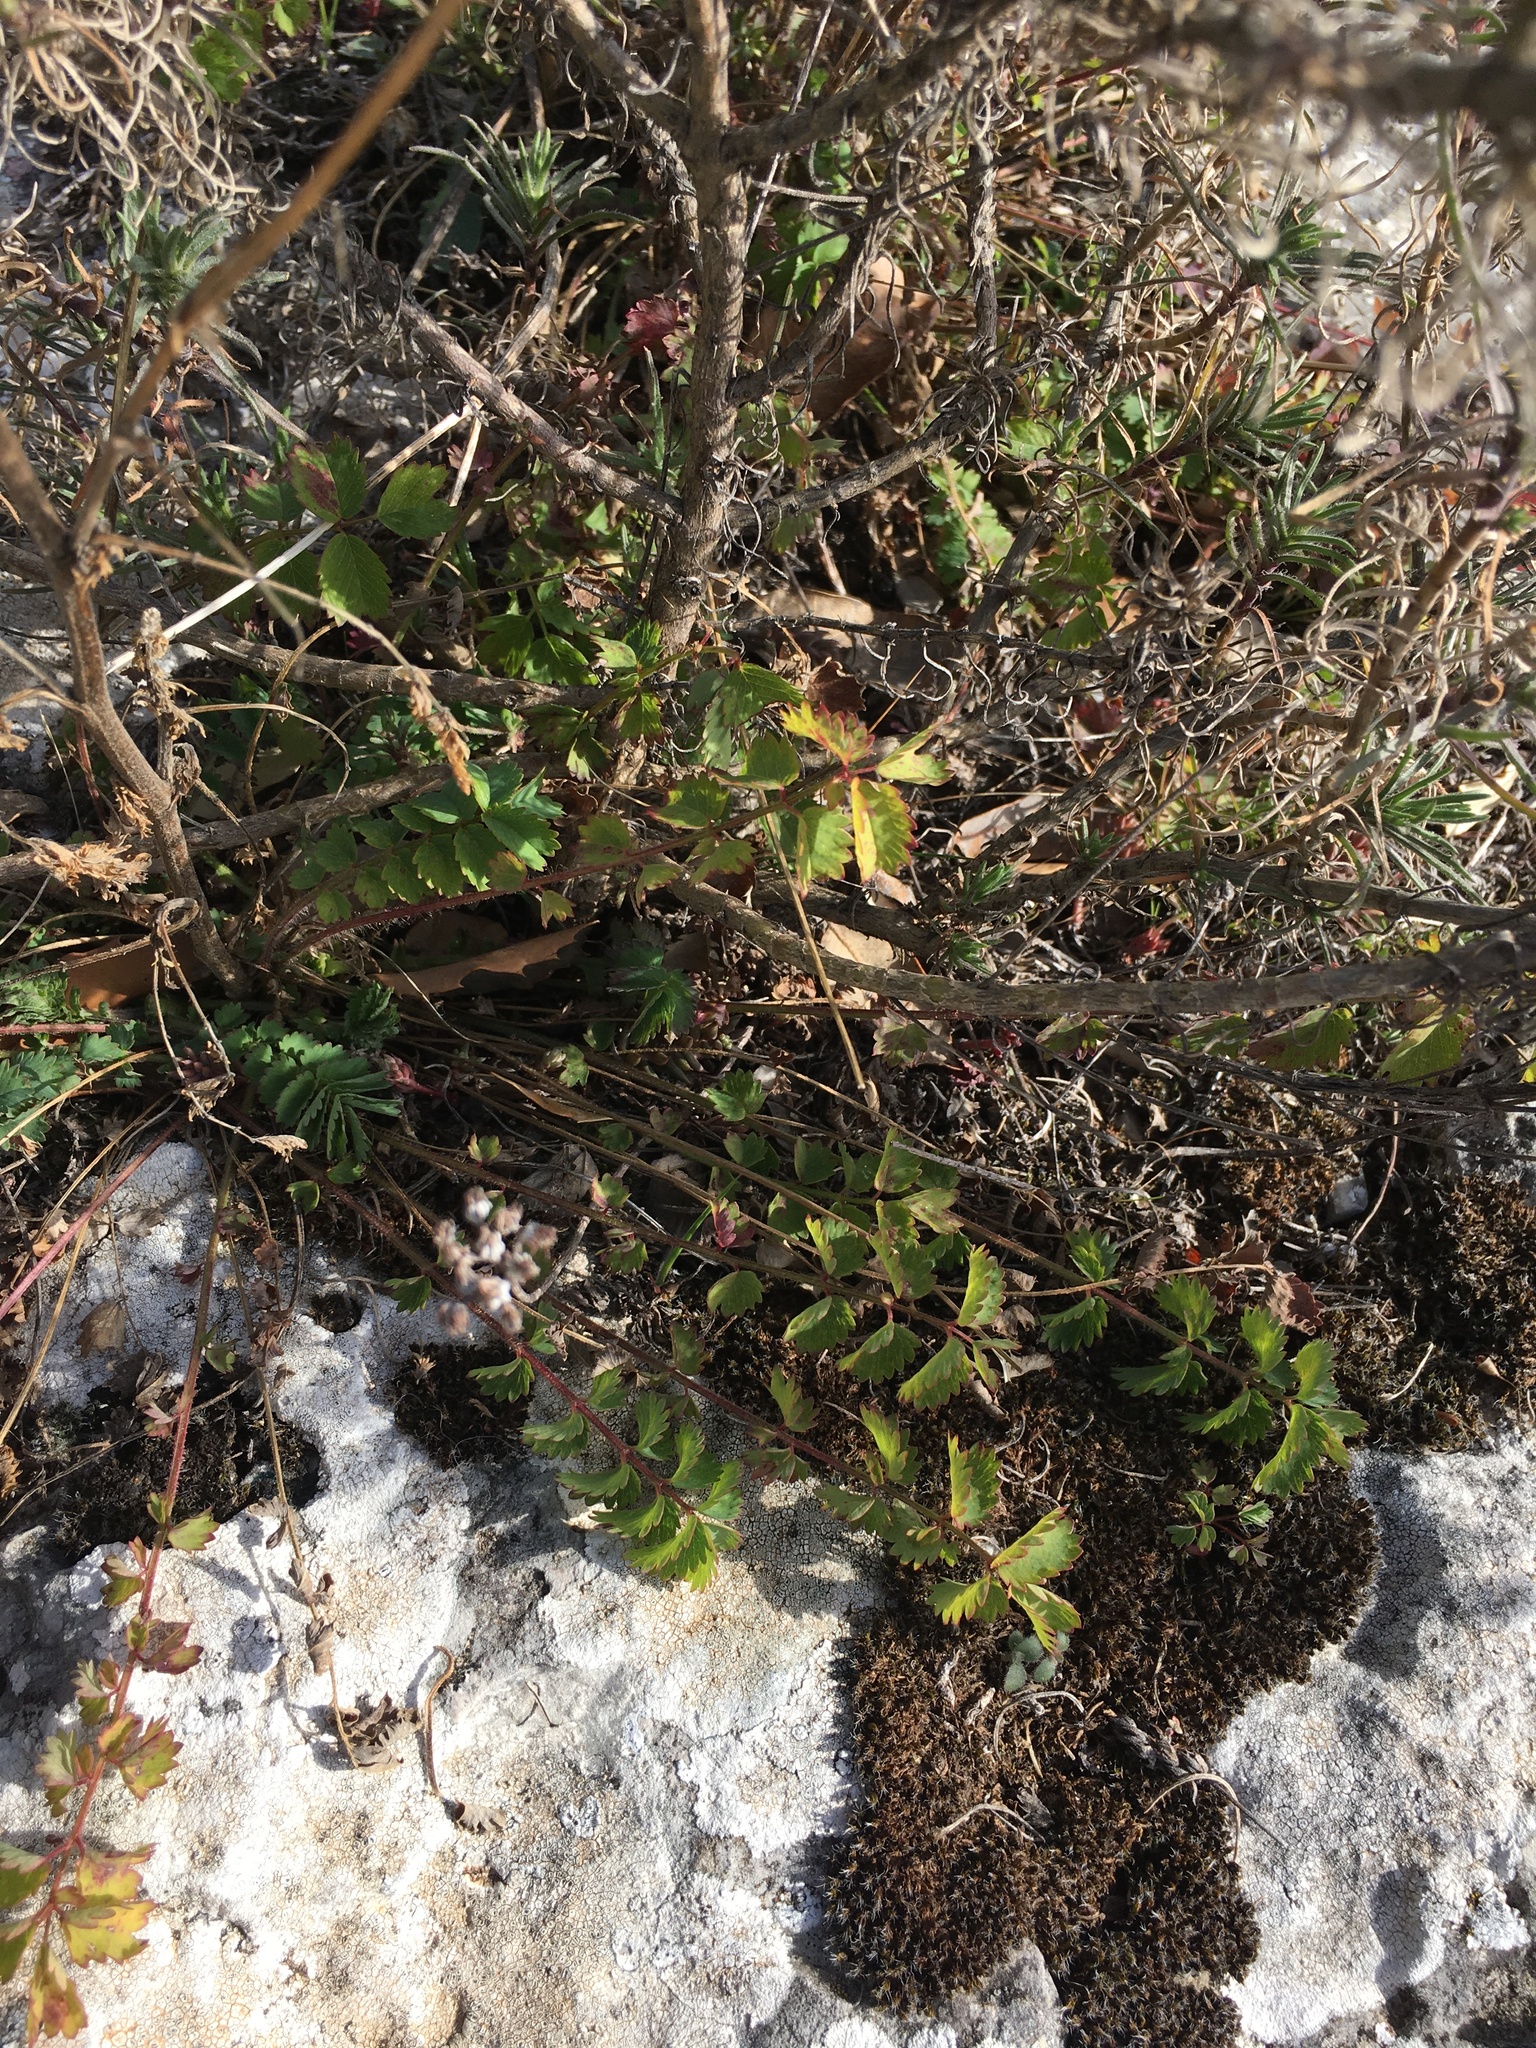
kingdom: Plantae
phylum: Tracheophyta
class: Magnoliopsida
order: Rosales
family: Rosaceae
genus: Poterium
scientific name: Poterium sanguisorba
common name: Salad burnet
